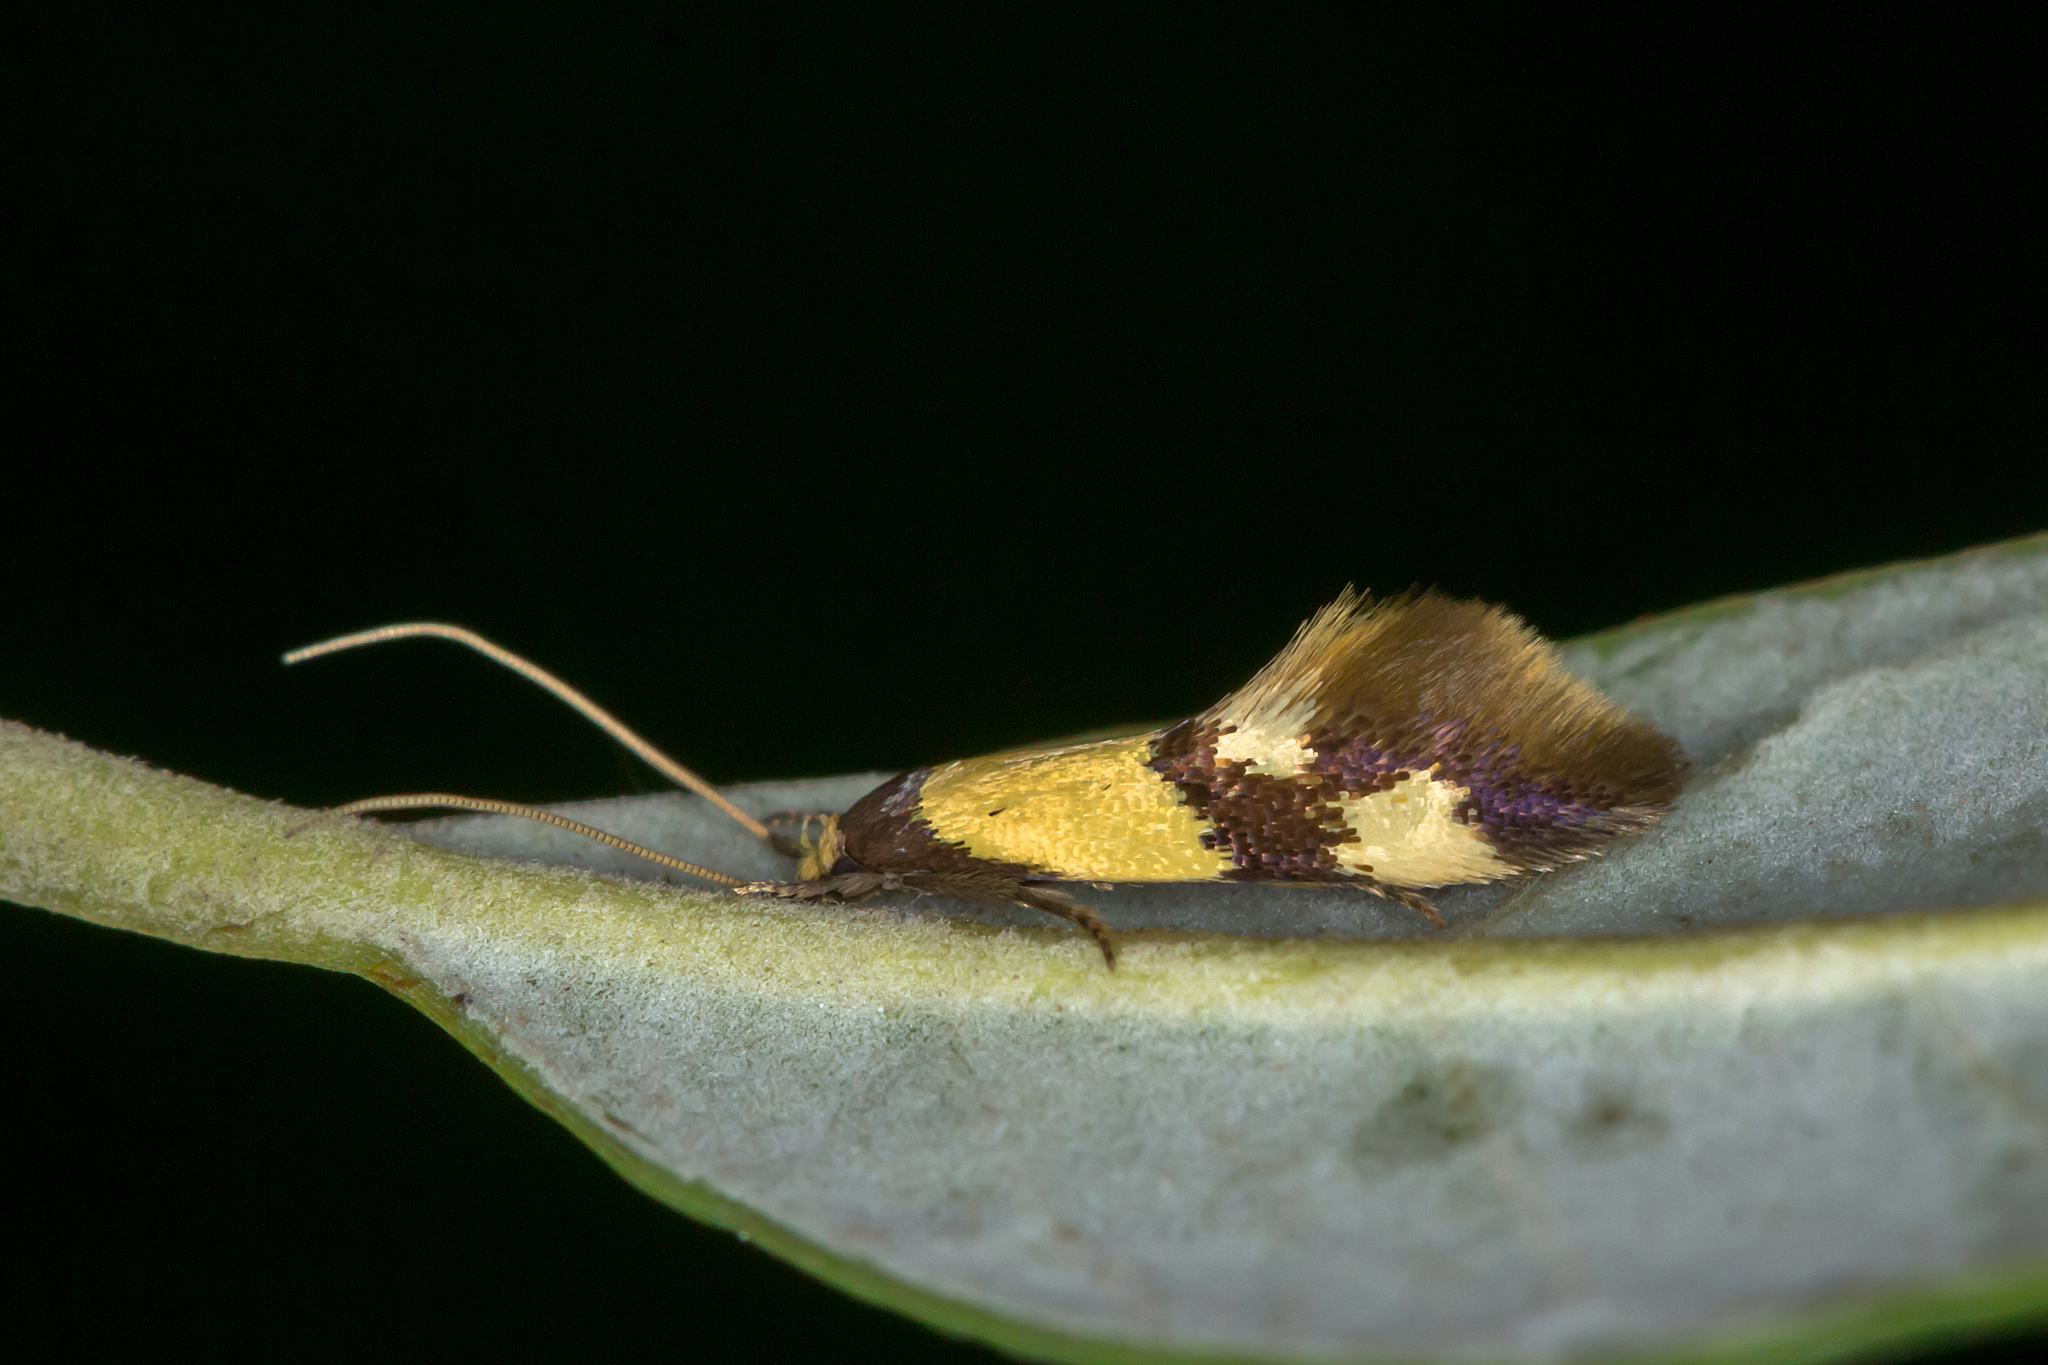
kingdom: Animalia
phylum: Arthropoda
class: Insecta
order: Lepidoptera
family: Tineidae
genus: Opogona
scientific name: Opogona comptella
